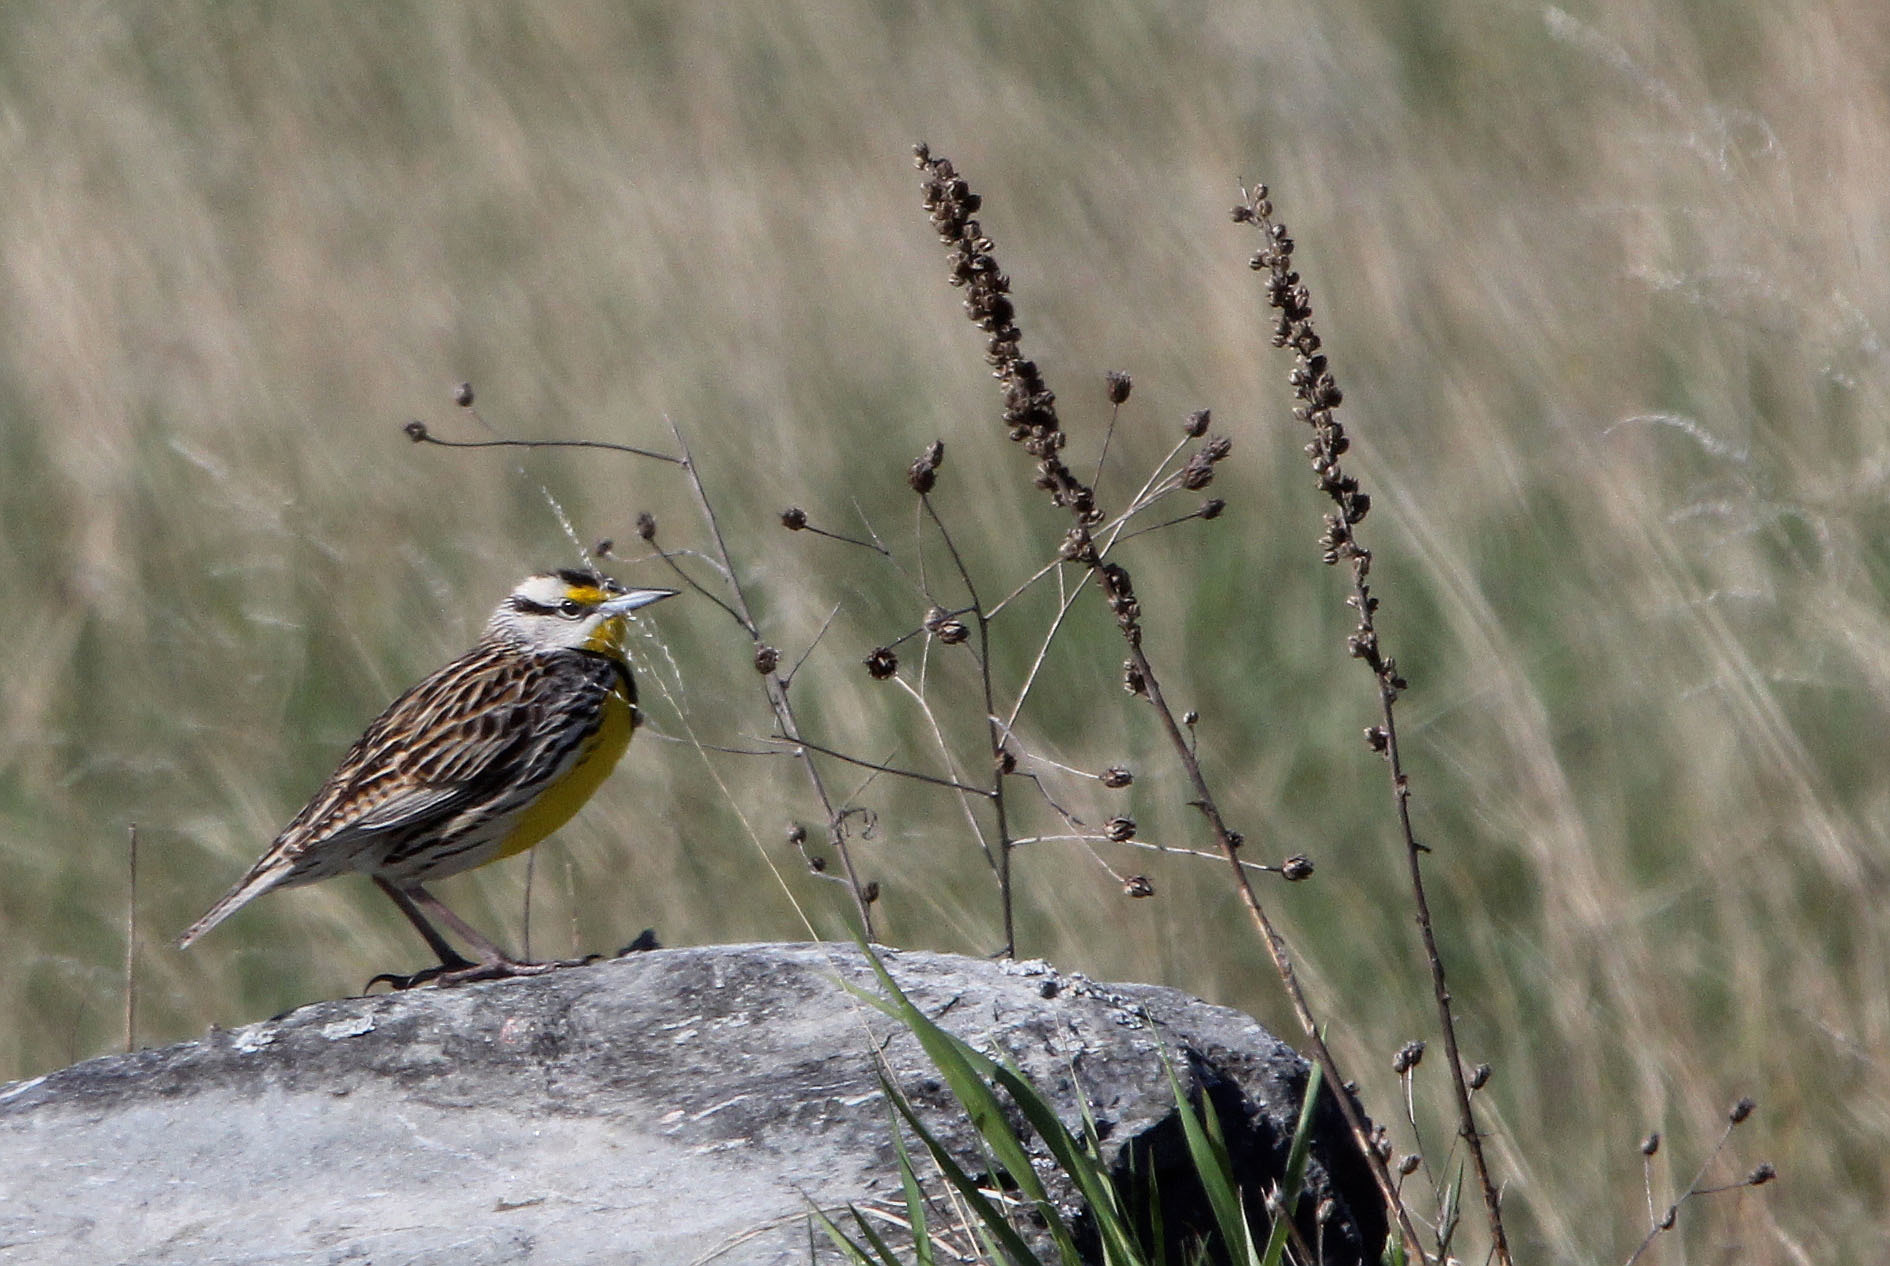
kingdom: Animalia
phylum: Chordata
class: Aves
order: Passeriformes
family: Icteridae
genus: Sturnella
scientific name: Sturnella magna
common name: Eastern meadowlark
